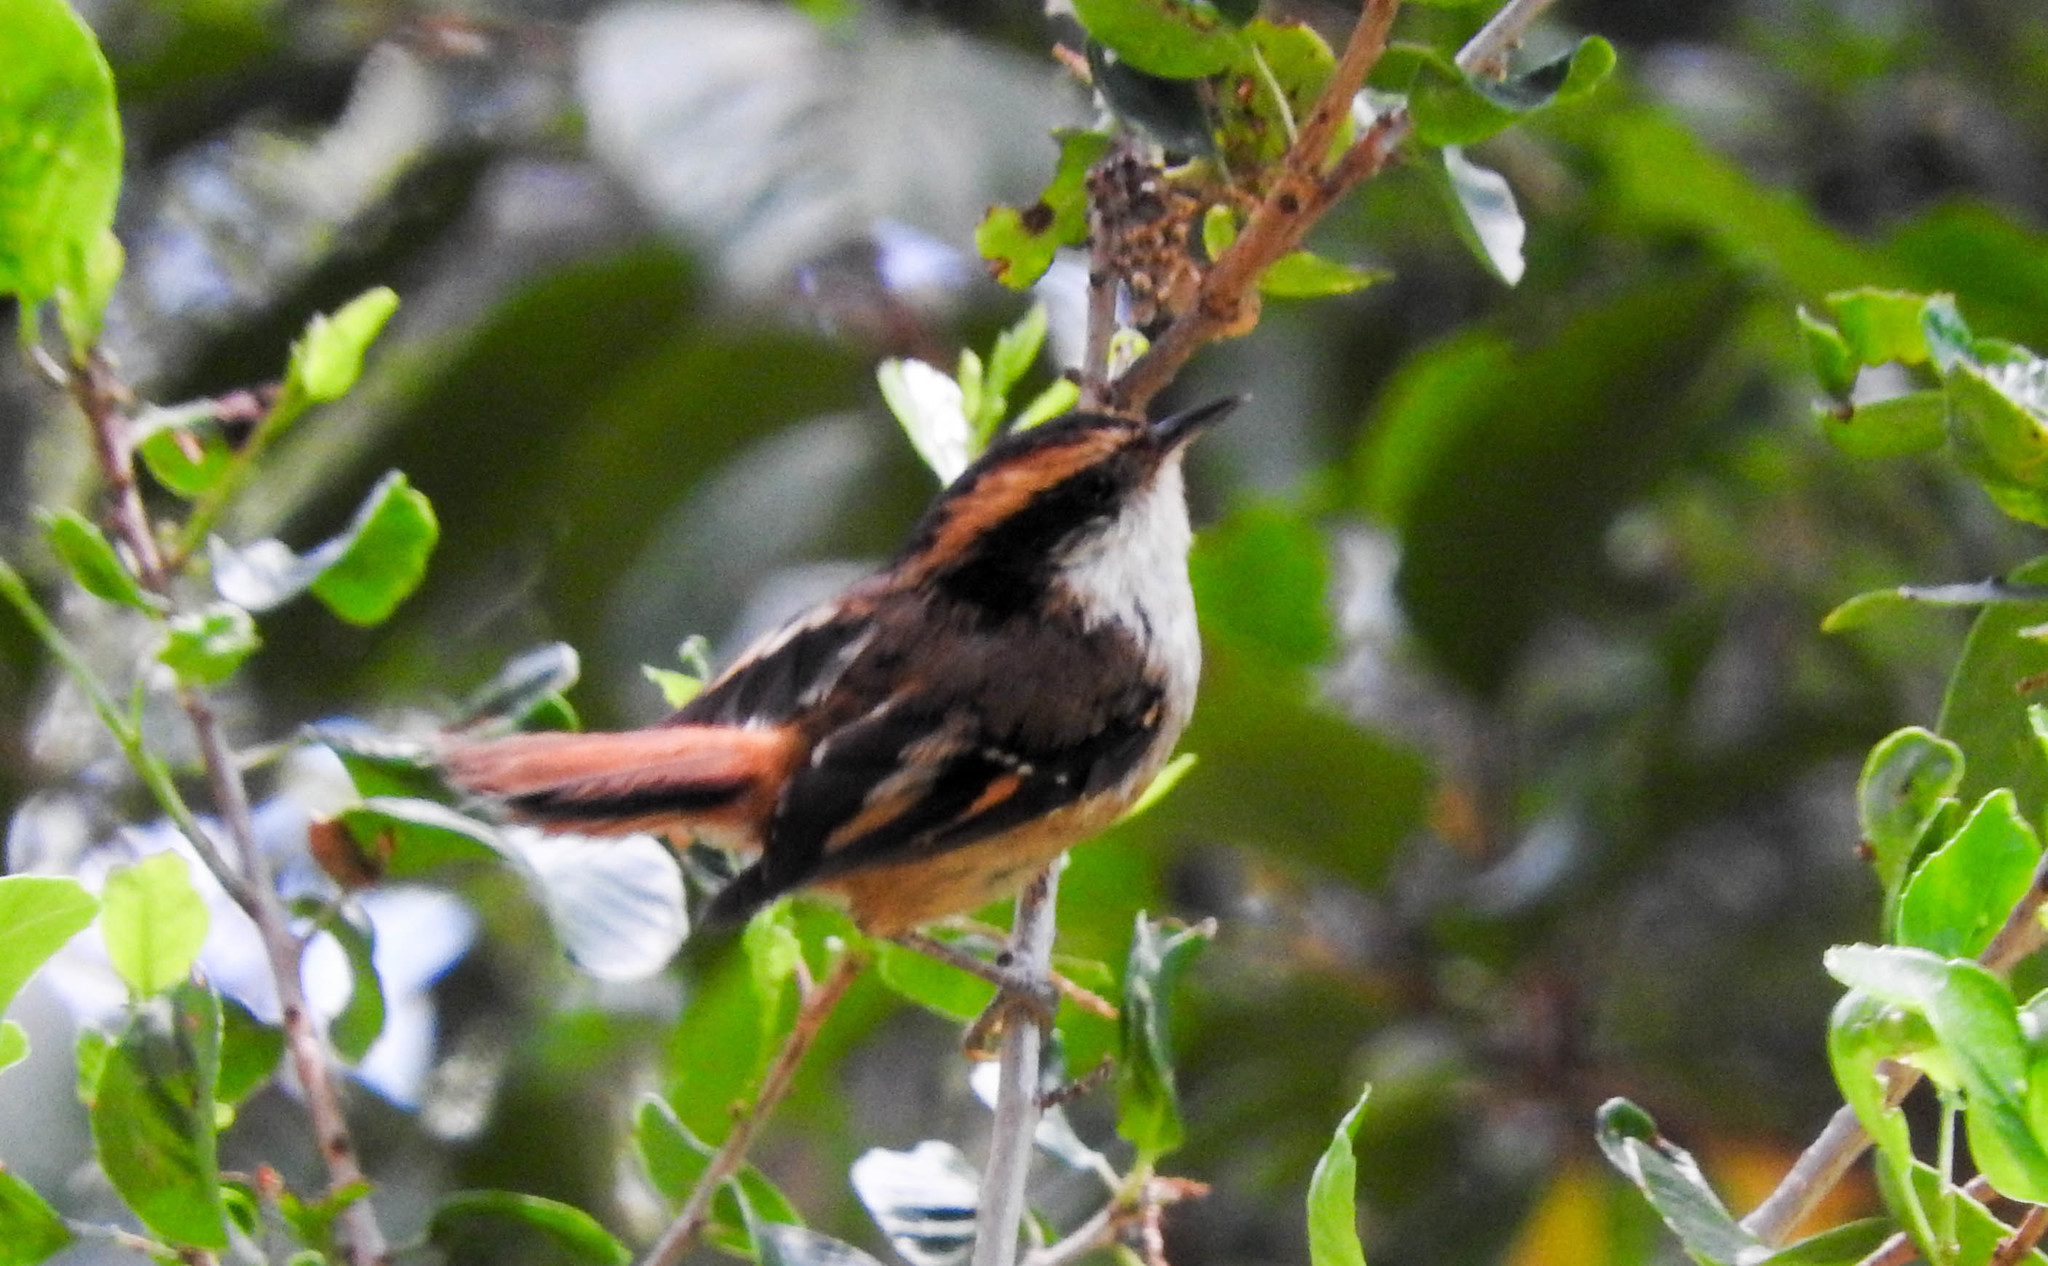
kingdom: Animalia
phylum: Chordata
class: Aves
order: Passeriformes
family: Furnariidae
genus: Aphrastura
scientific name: Aphrastura spinicauda
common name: Thorn-tailed rayadito
